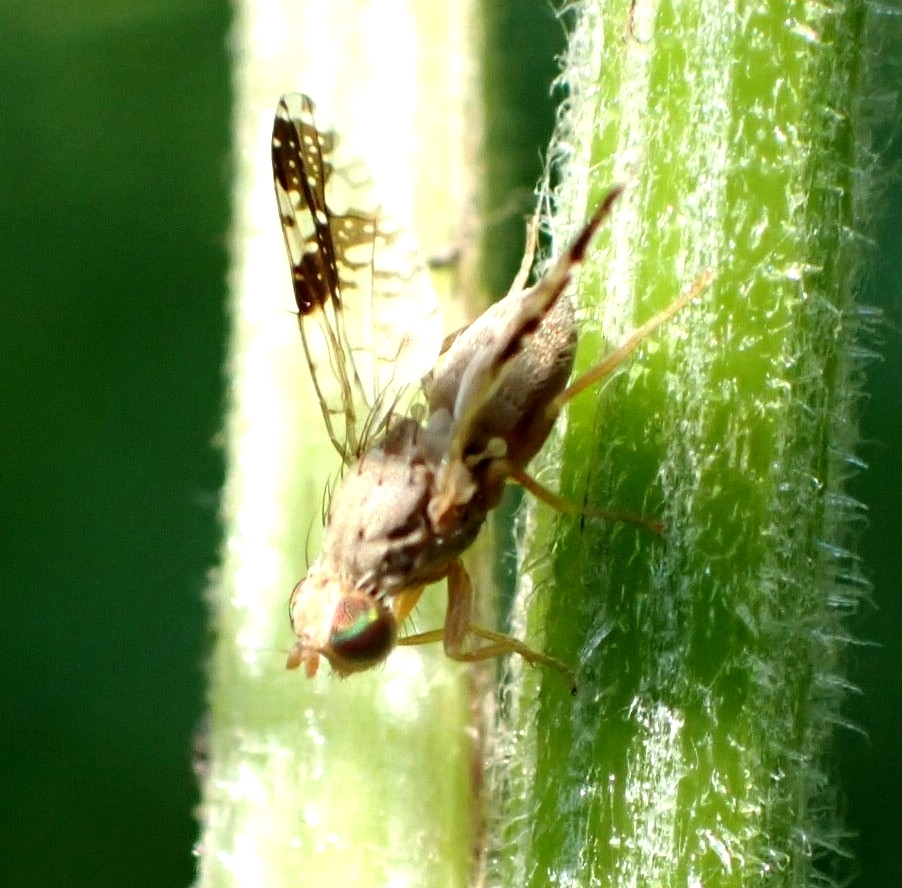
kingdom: Animalia
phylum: Arthropoda
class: Insecta
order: Diptera
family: Tephritidae
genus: Tephritis
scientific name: Tephritis bardanae
